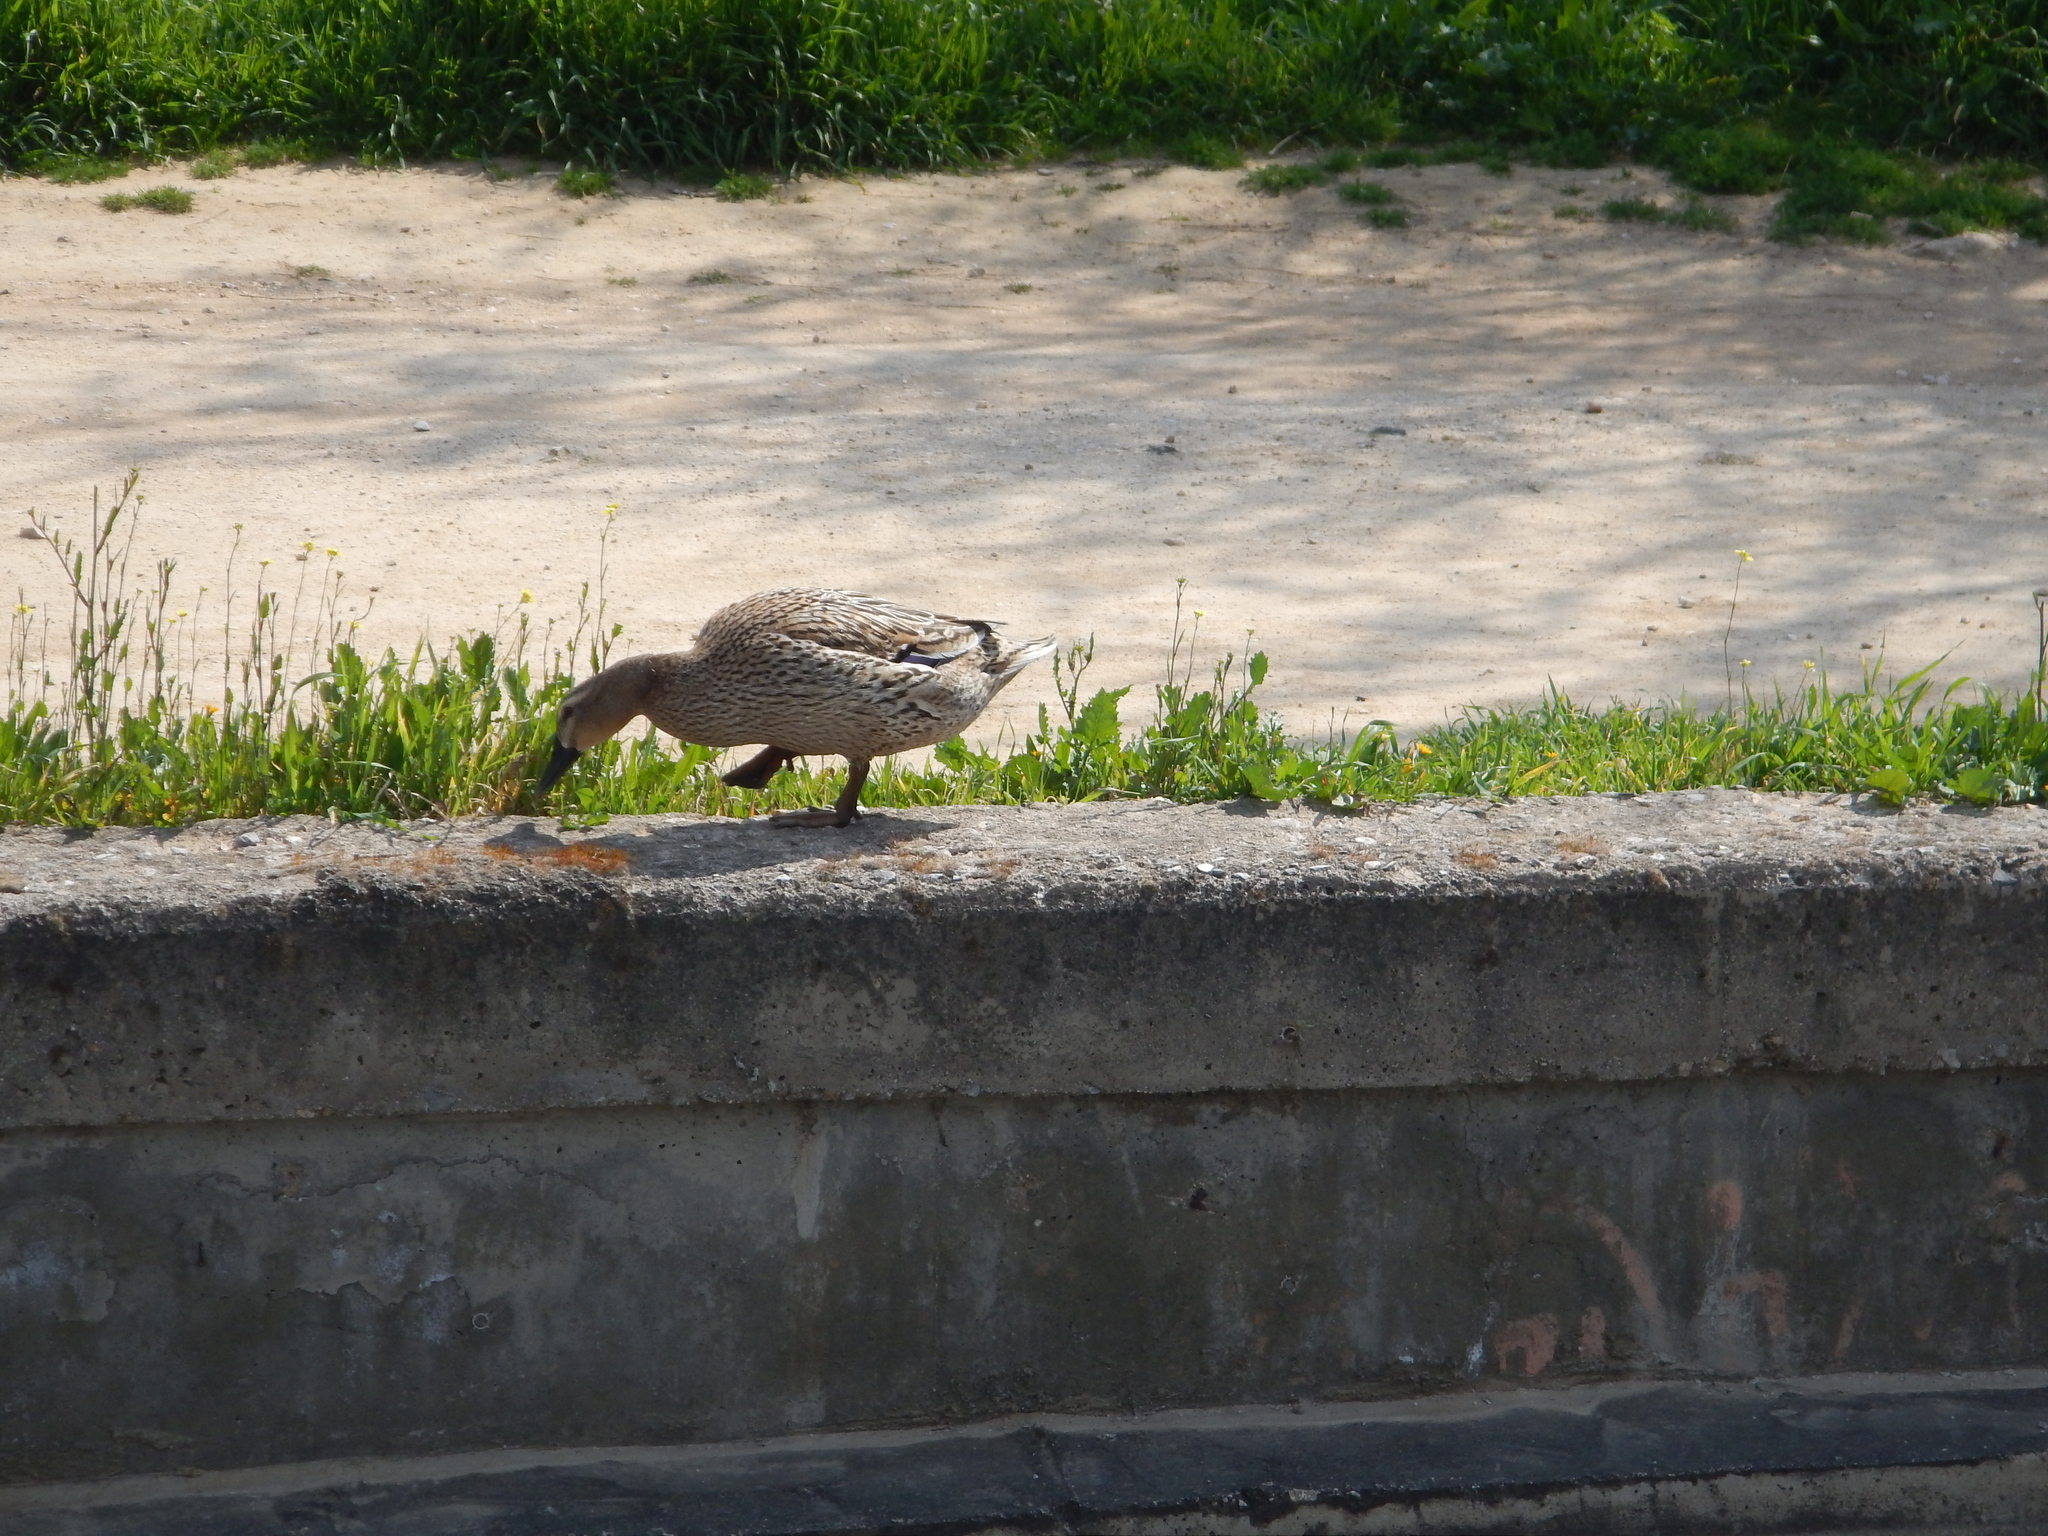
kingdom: Animalia
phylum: Chordata
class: Aves
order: Anseriformes
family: Anatidae
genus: Anas
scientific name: Anas platyrhynchos
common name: Mallard
